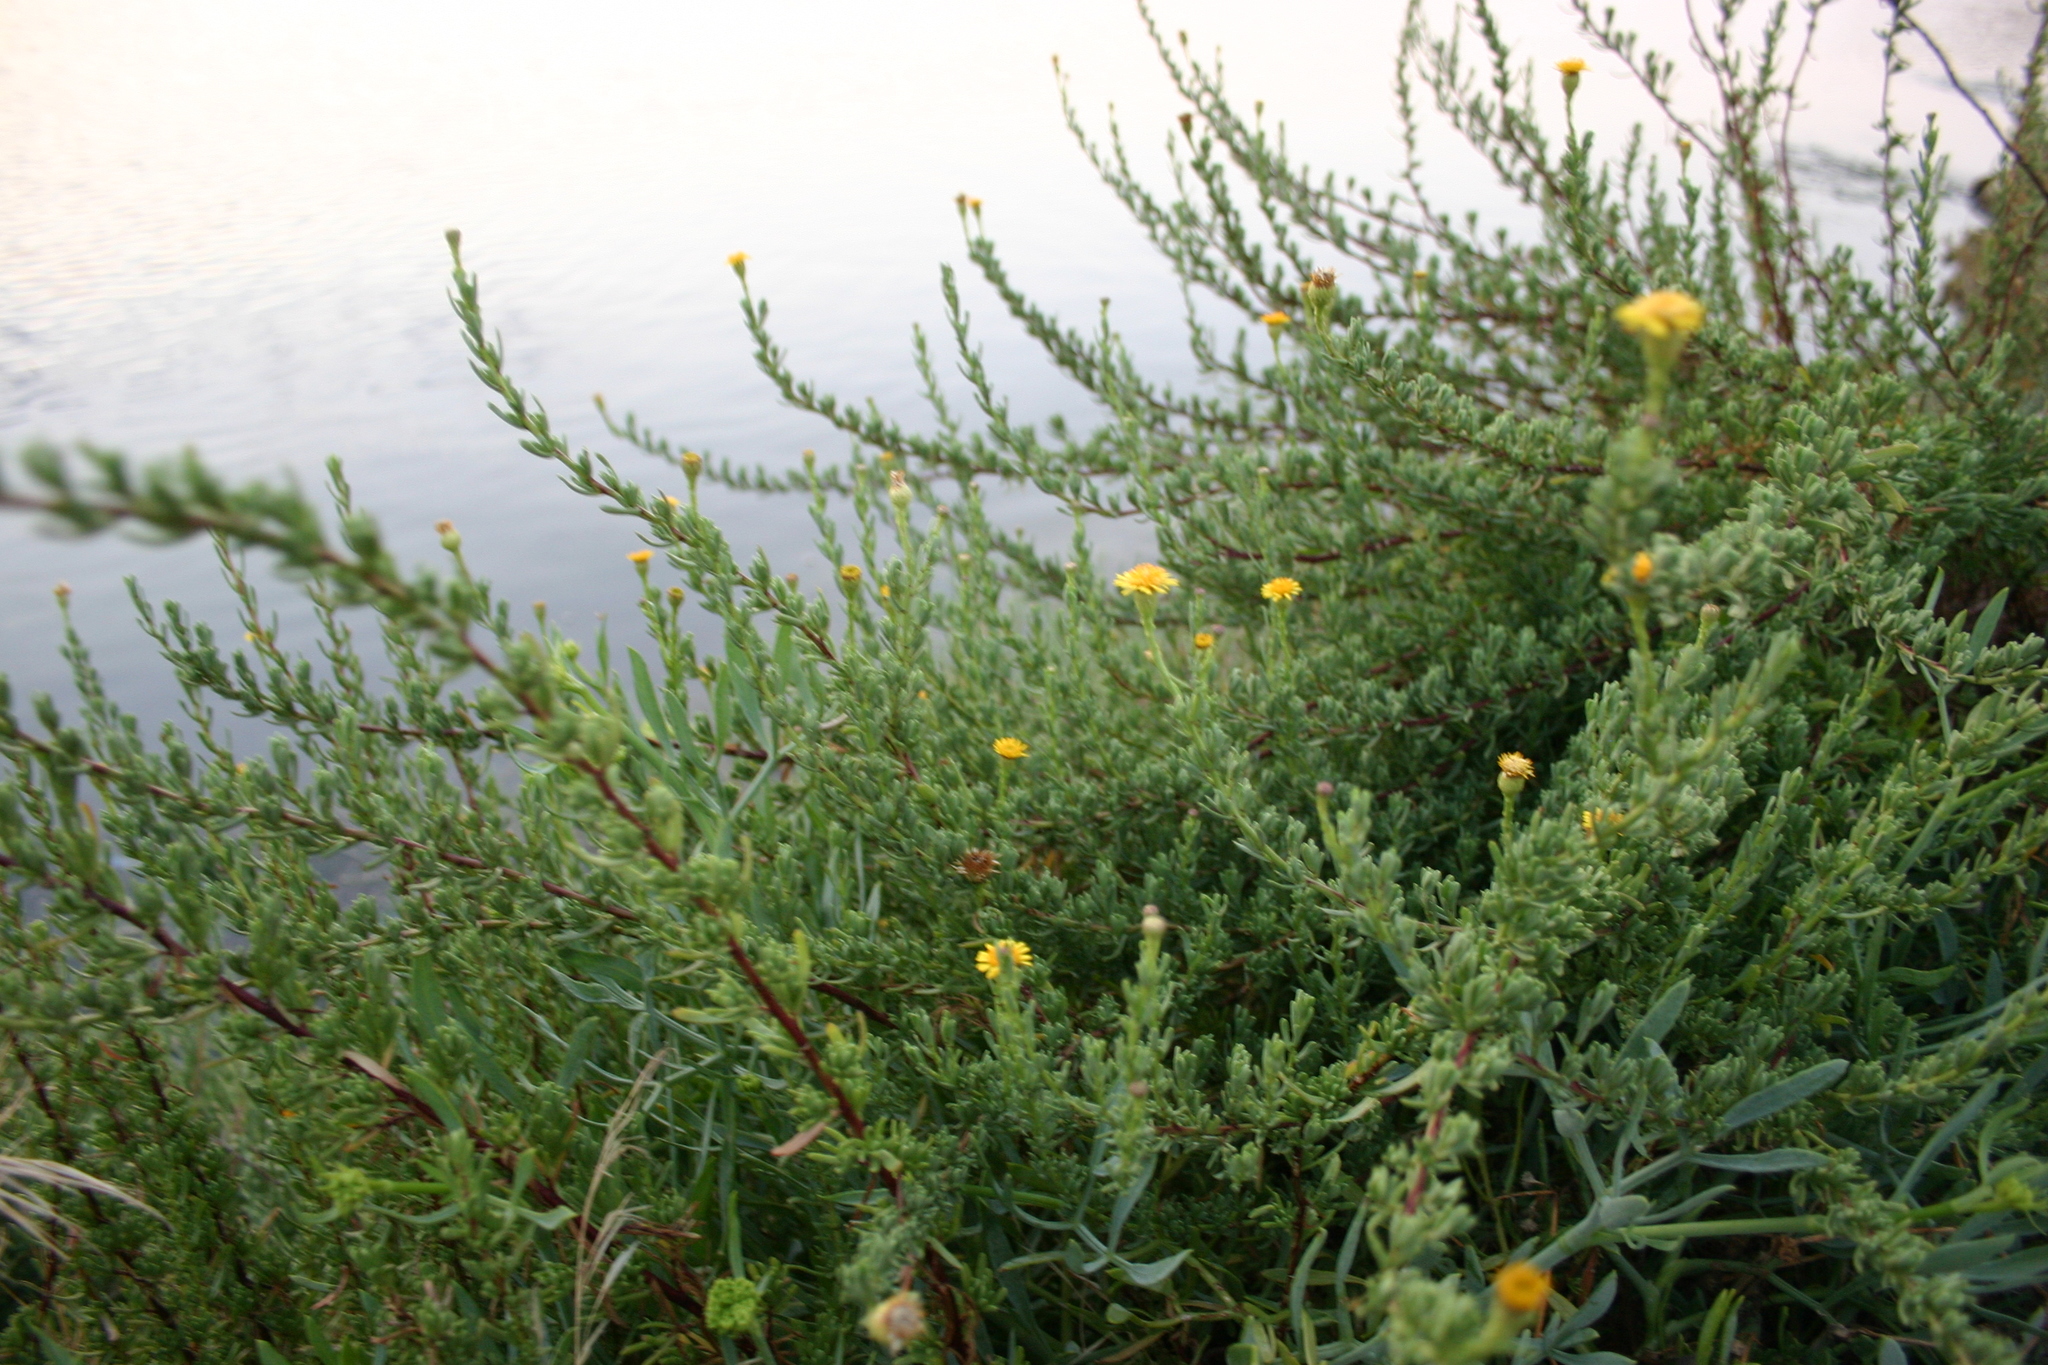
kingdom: Plantae
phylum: Tracheophyta
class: Magnoliopsida
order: Asterales
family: Asteraceae
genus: Limbarda
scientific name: Limbarda crithmoides
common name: Golden samphire
